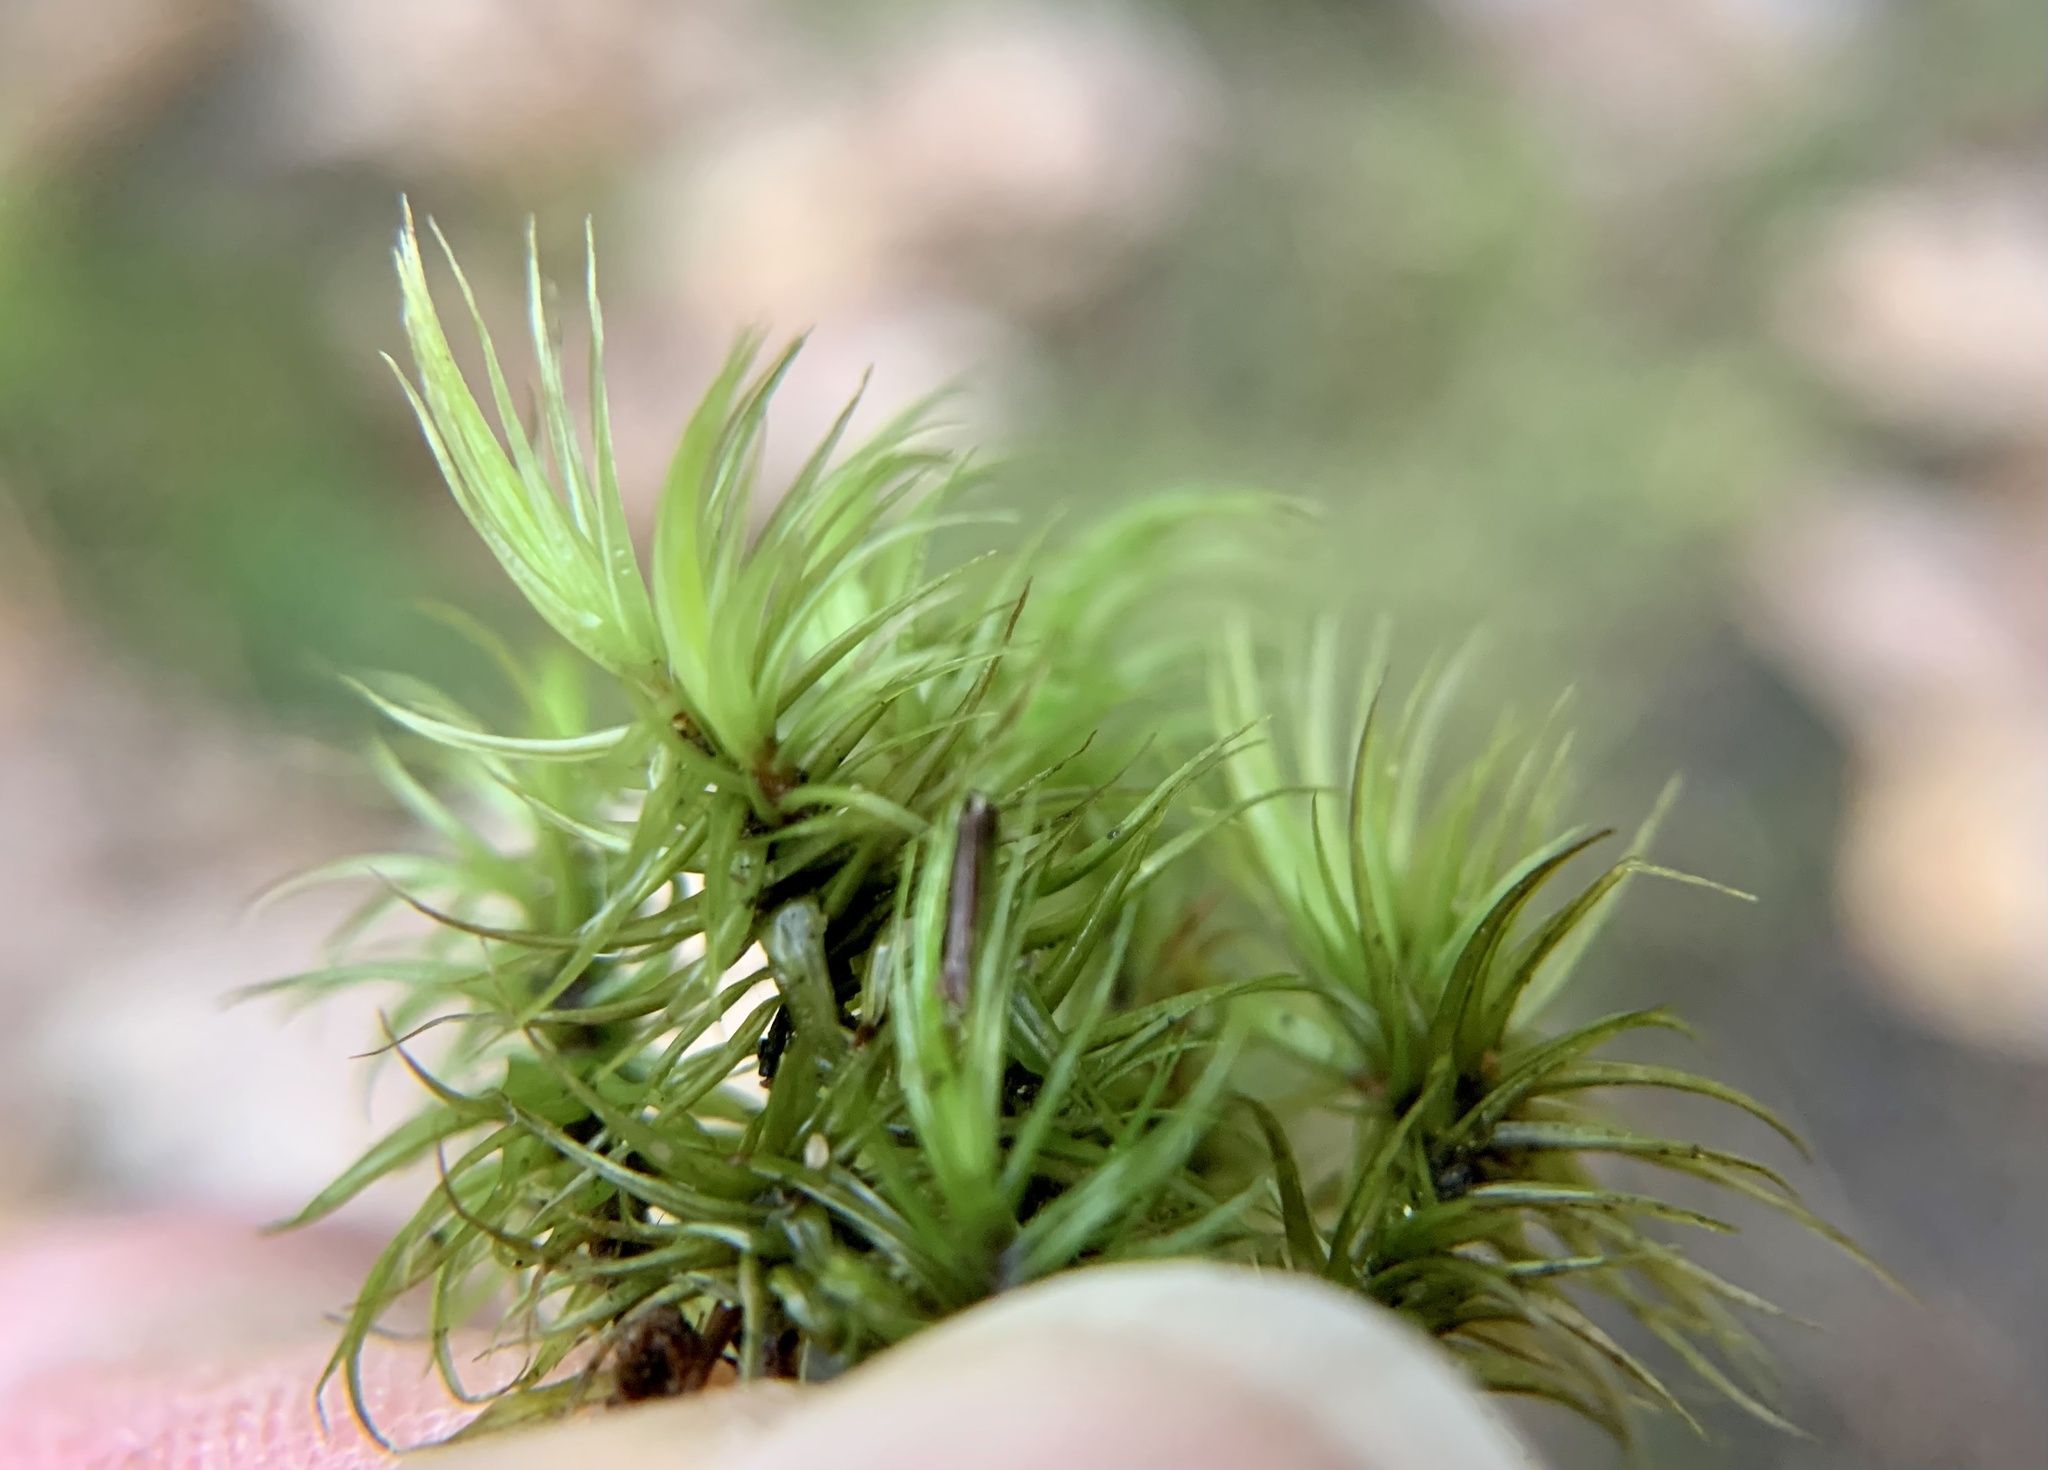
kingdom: Plantae
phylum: Bryophyta
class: Bryopsida
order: Dicranales
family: Dicranaceae
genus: Dicranum
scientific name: Dicranum scoparium
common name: Broom fork-moss
